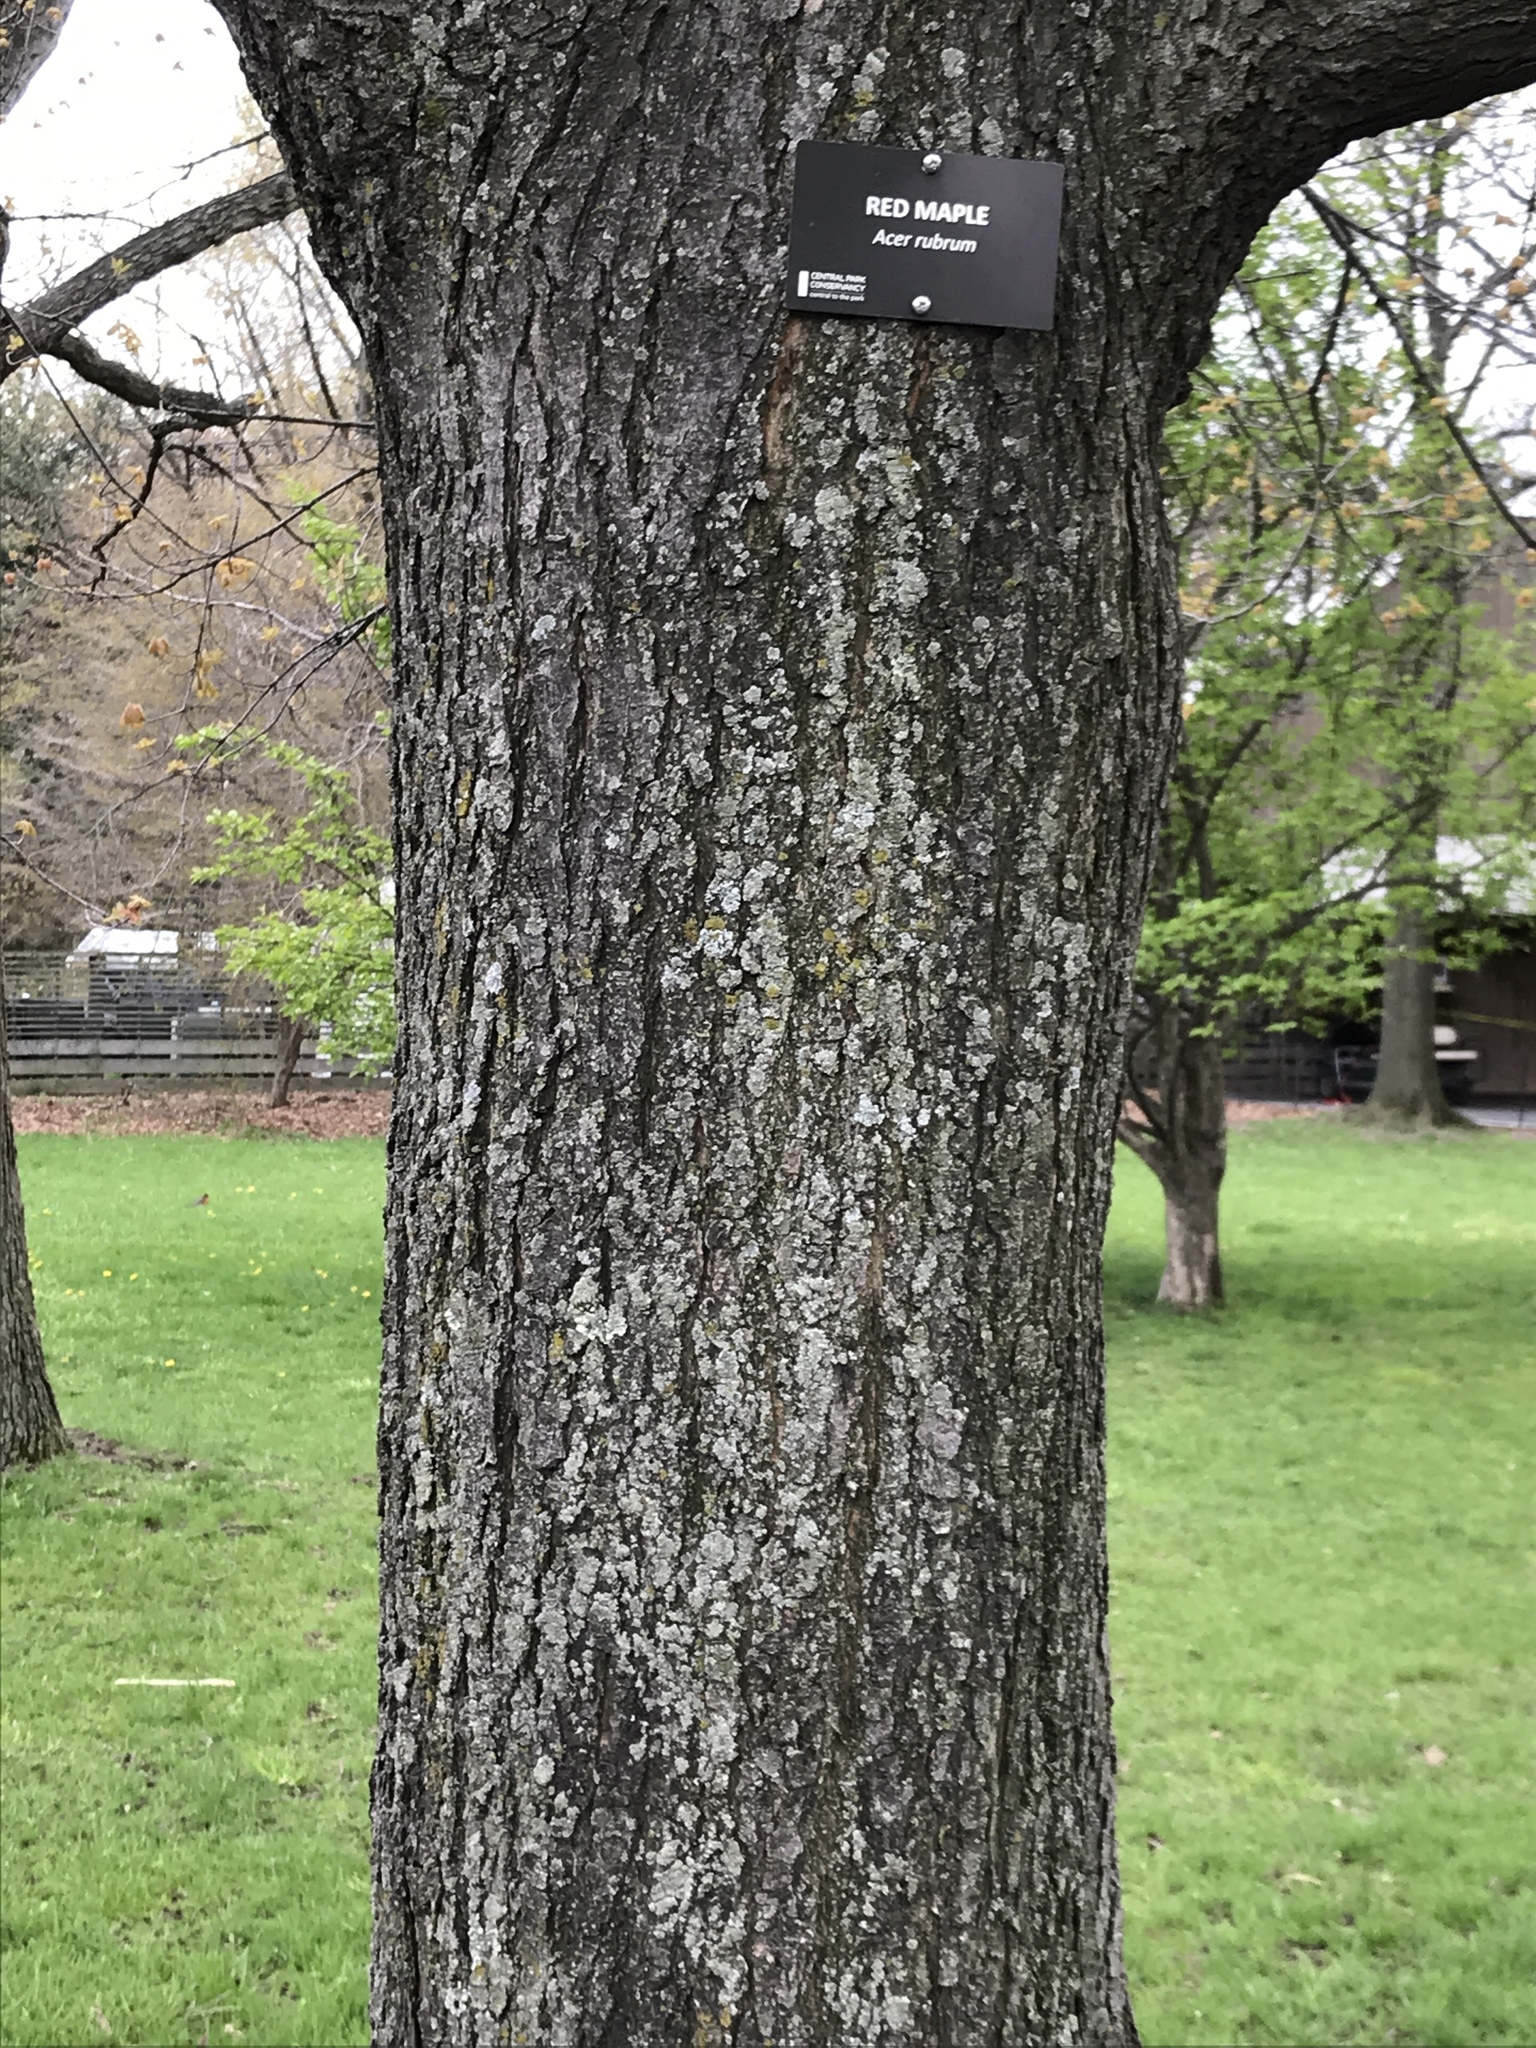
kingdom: Plantae
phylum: Tracheophyta
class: Magnoliopsida
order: Sapindales
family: Sapindaceae
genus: Acer
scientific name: Acer rubrum
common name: Red maple
